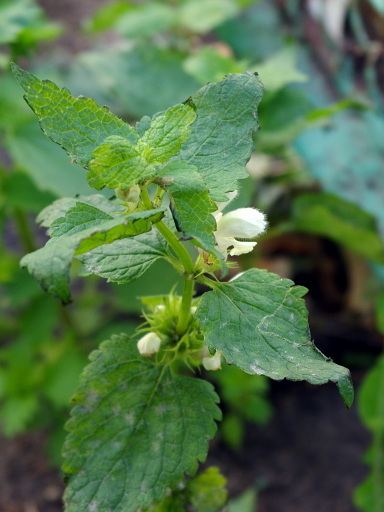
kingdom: Plantae
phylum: Tracheophyta
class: Magnoliopsida
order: Lamiales
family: Lamiaceae
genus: Lamium
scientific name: Lamium album
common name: White dead-nettle
